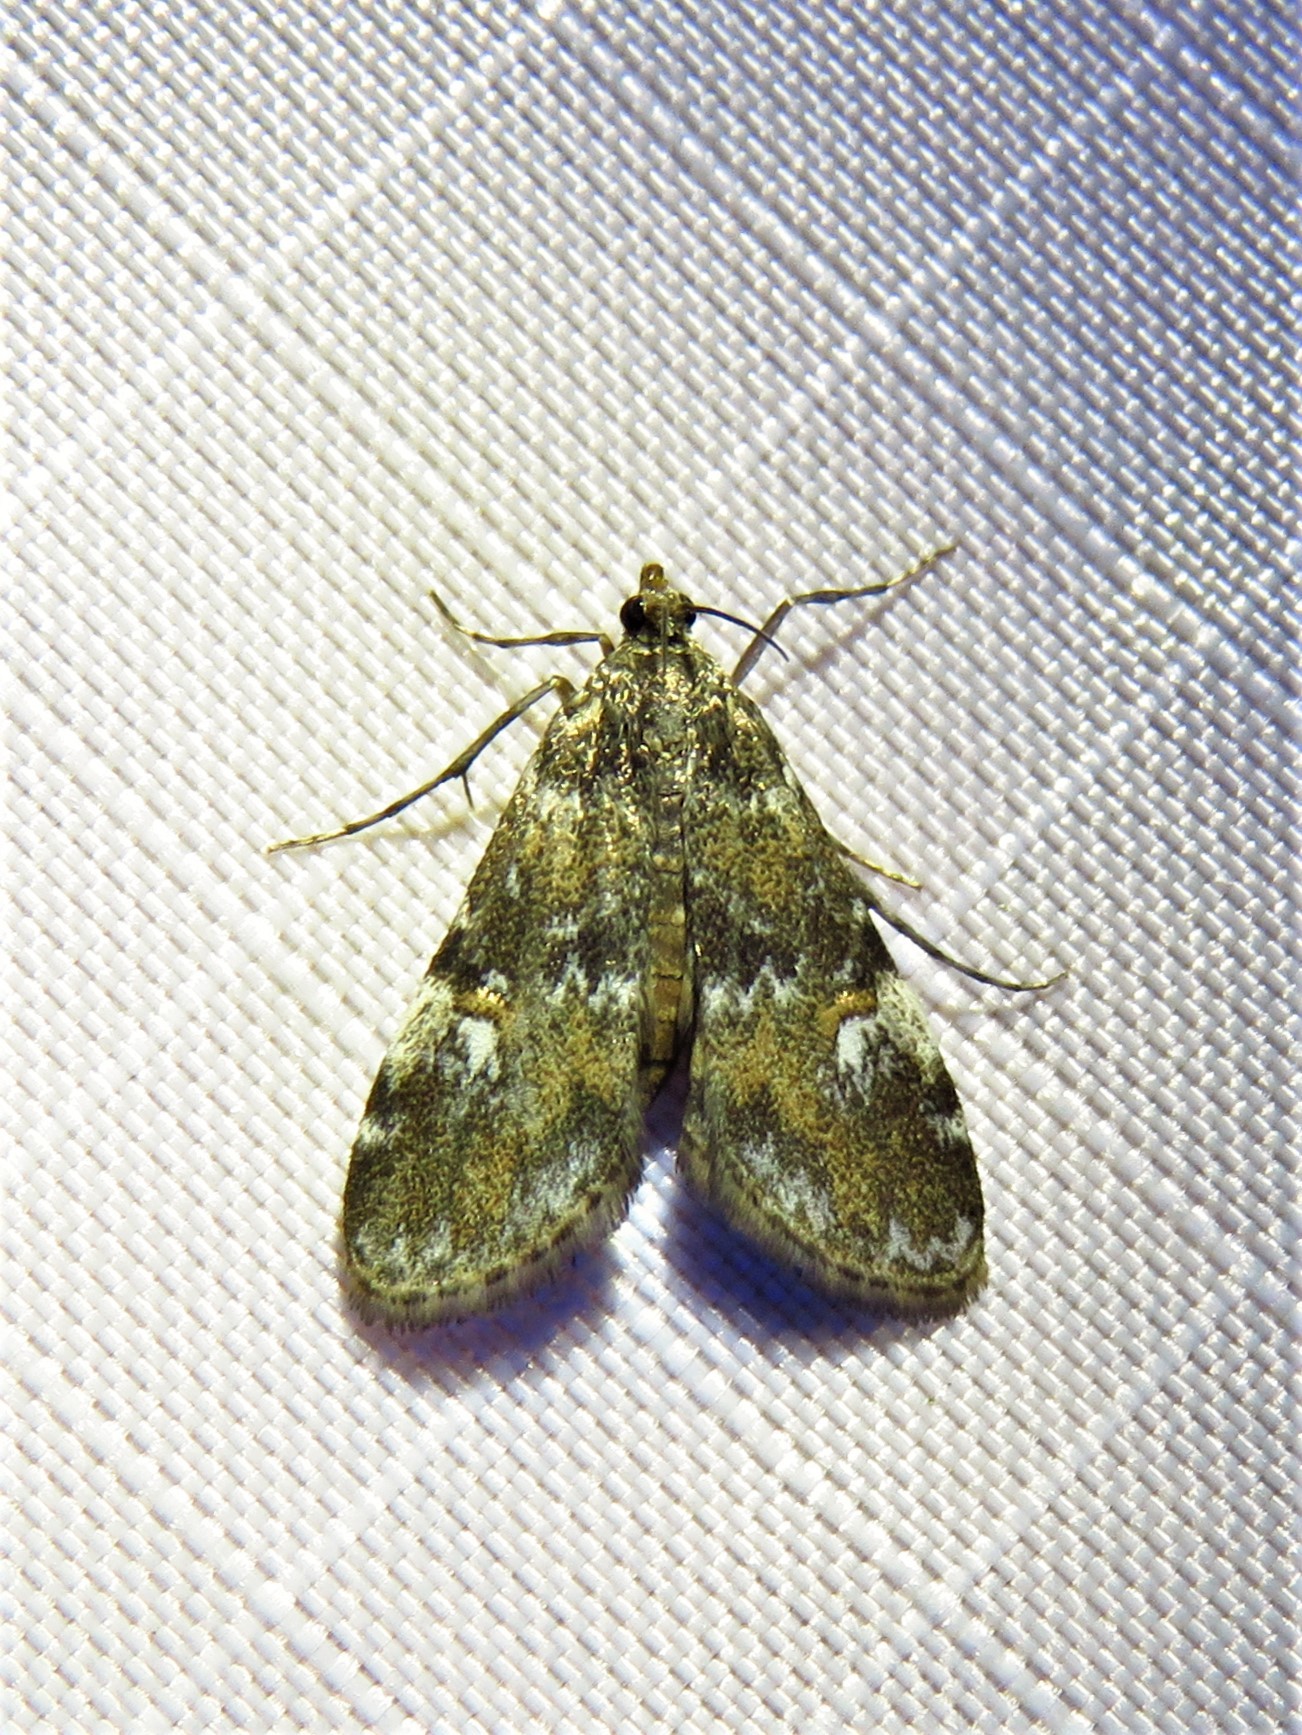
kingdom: Animalia
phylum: Arthropoda
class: Insecta
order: Lepidoptera
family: Crambidae
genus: Elophila
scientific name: Elophila obliteralis
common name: Waterlily leafcutter moth
